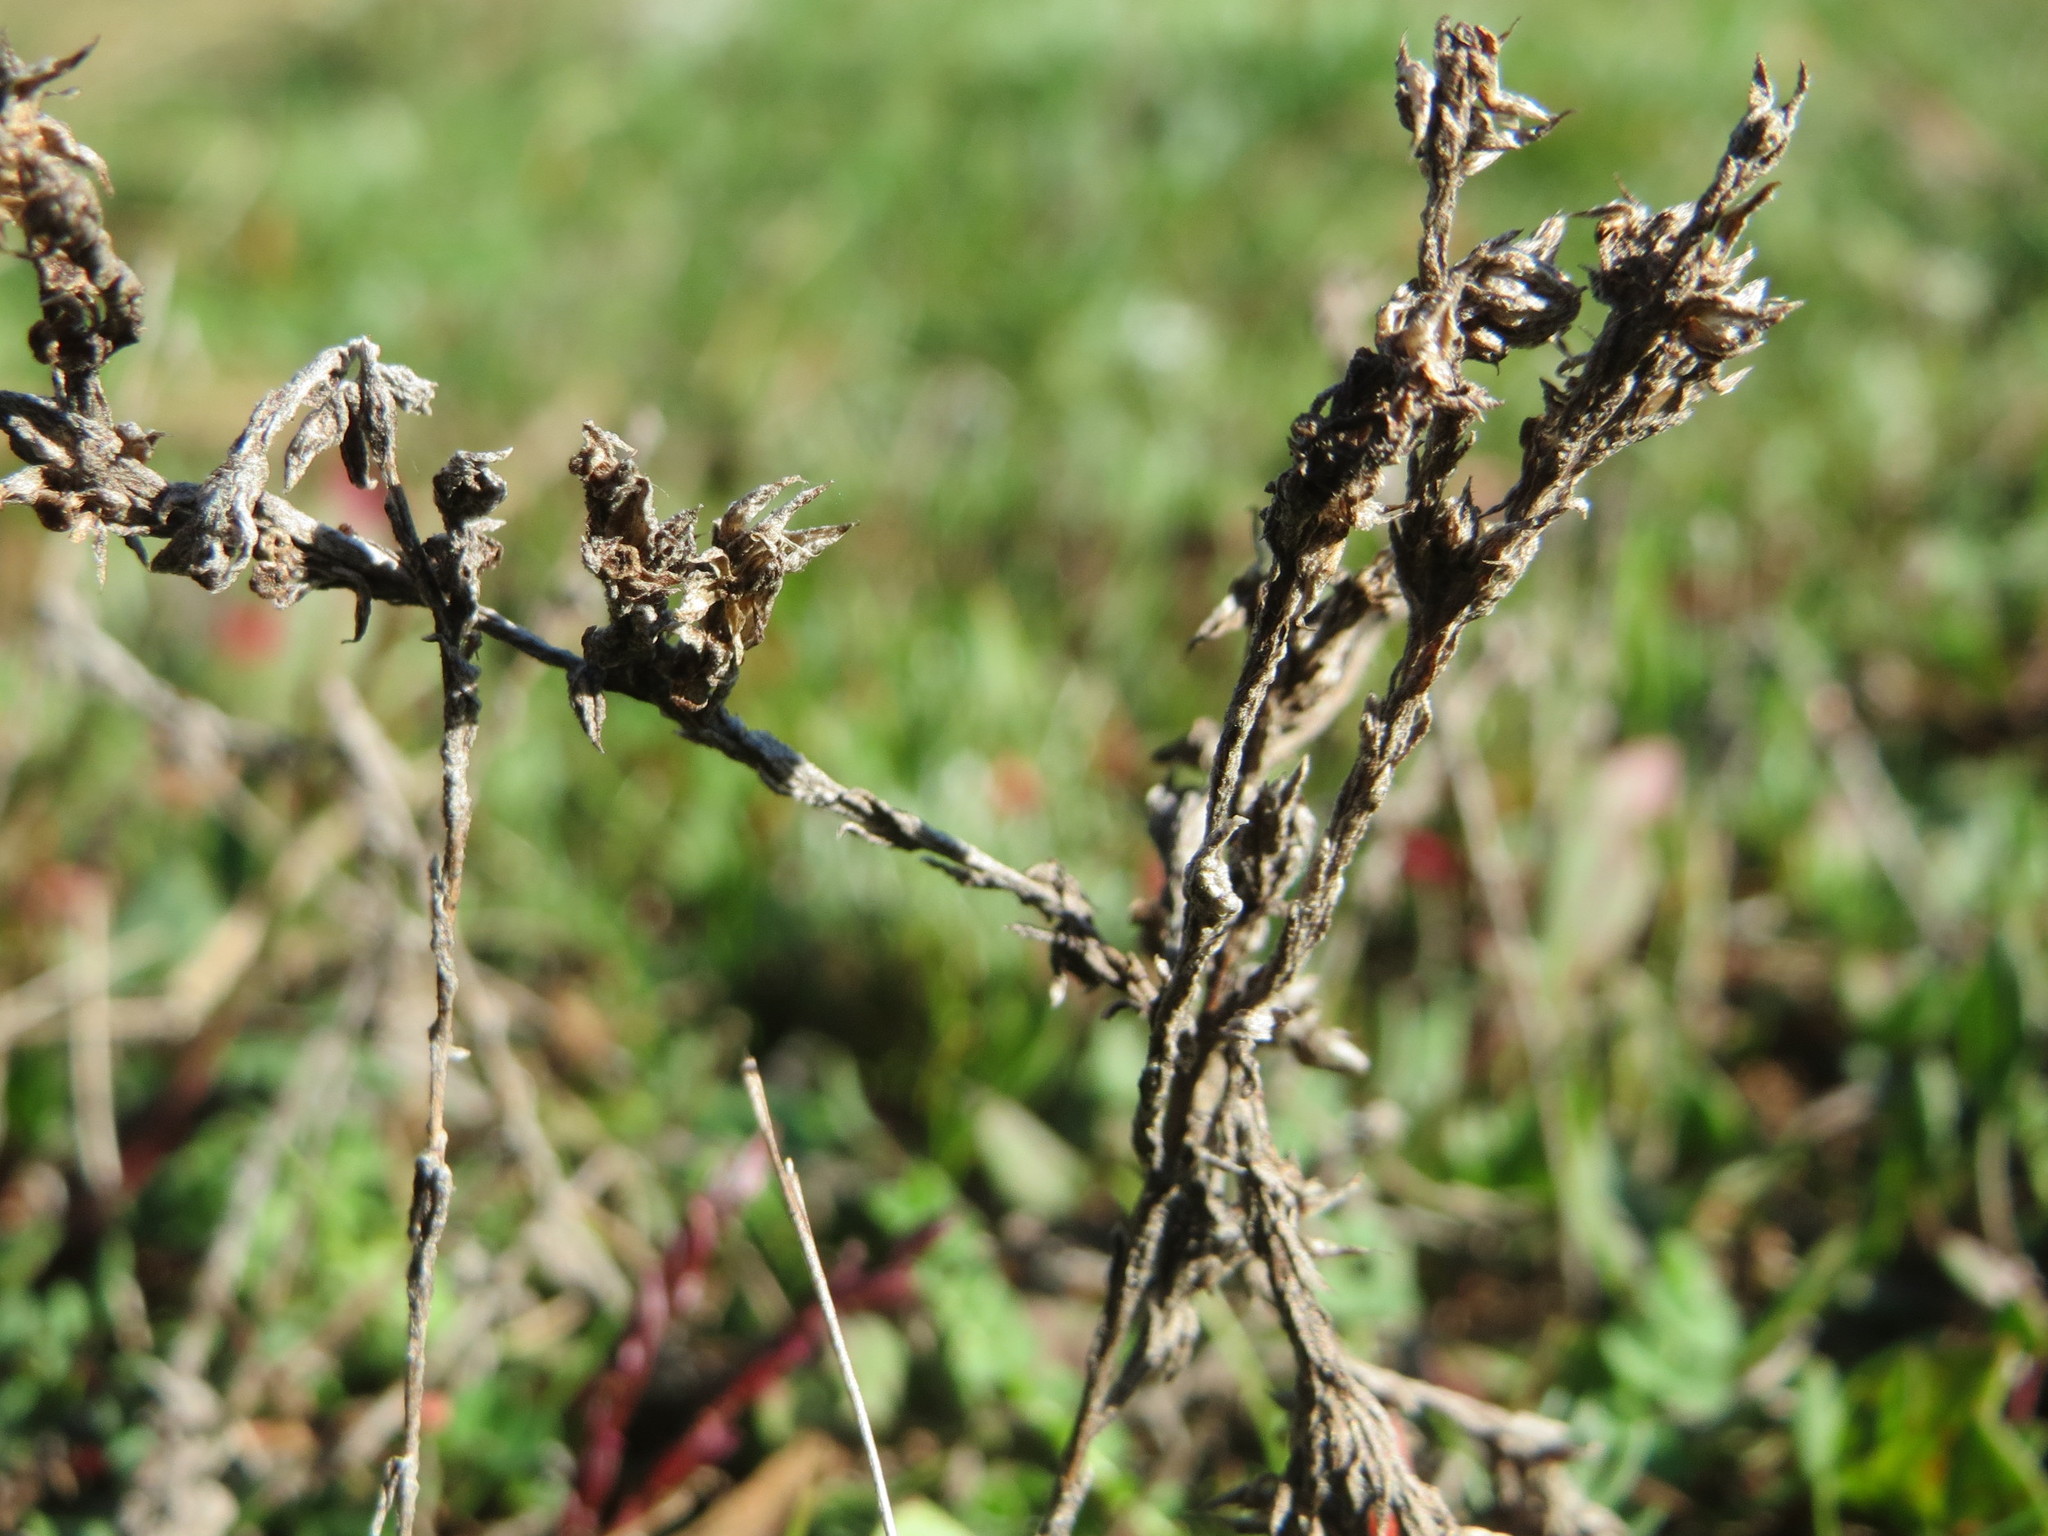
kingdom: Plantae
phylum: Tracheophyta
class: Magnoliopsida
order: Asterales
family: Asteraceae
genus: Filago
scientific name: Filago arvensis
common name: Field cudweed
